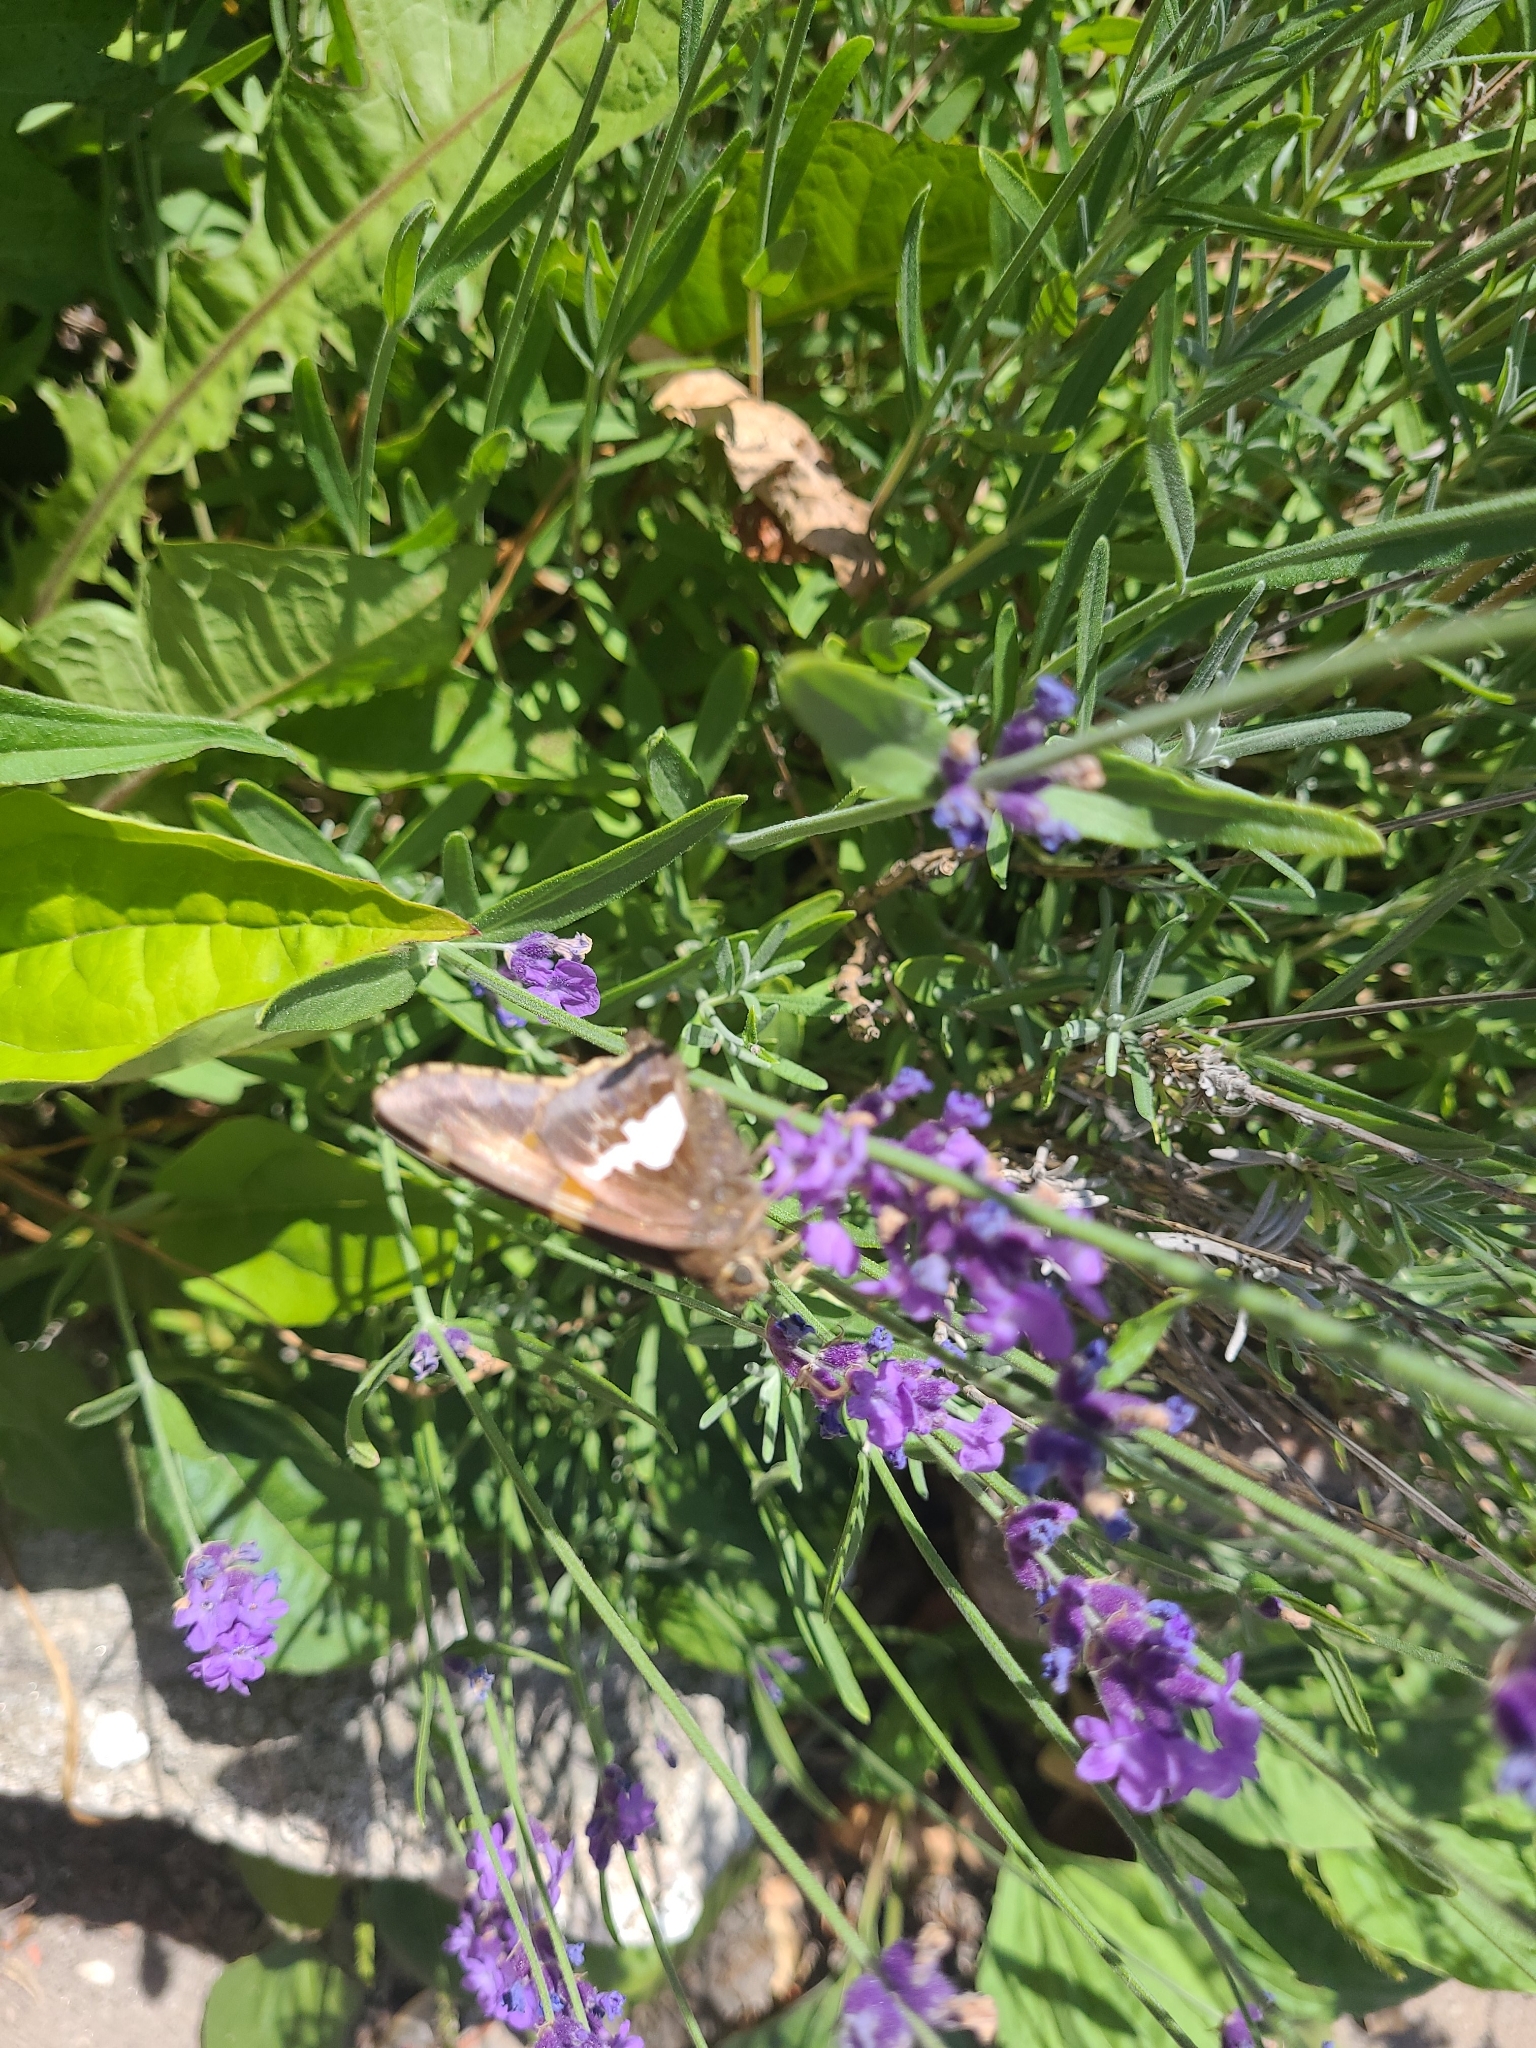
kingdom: Animalia
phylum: Arthropoda
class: Insecta
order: Lepidoptera
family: Hesperiidae
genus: Epargyreus
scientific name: Epargyreus clarus
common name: Silver-spotted skipper
